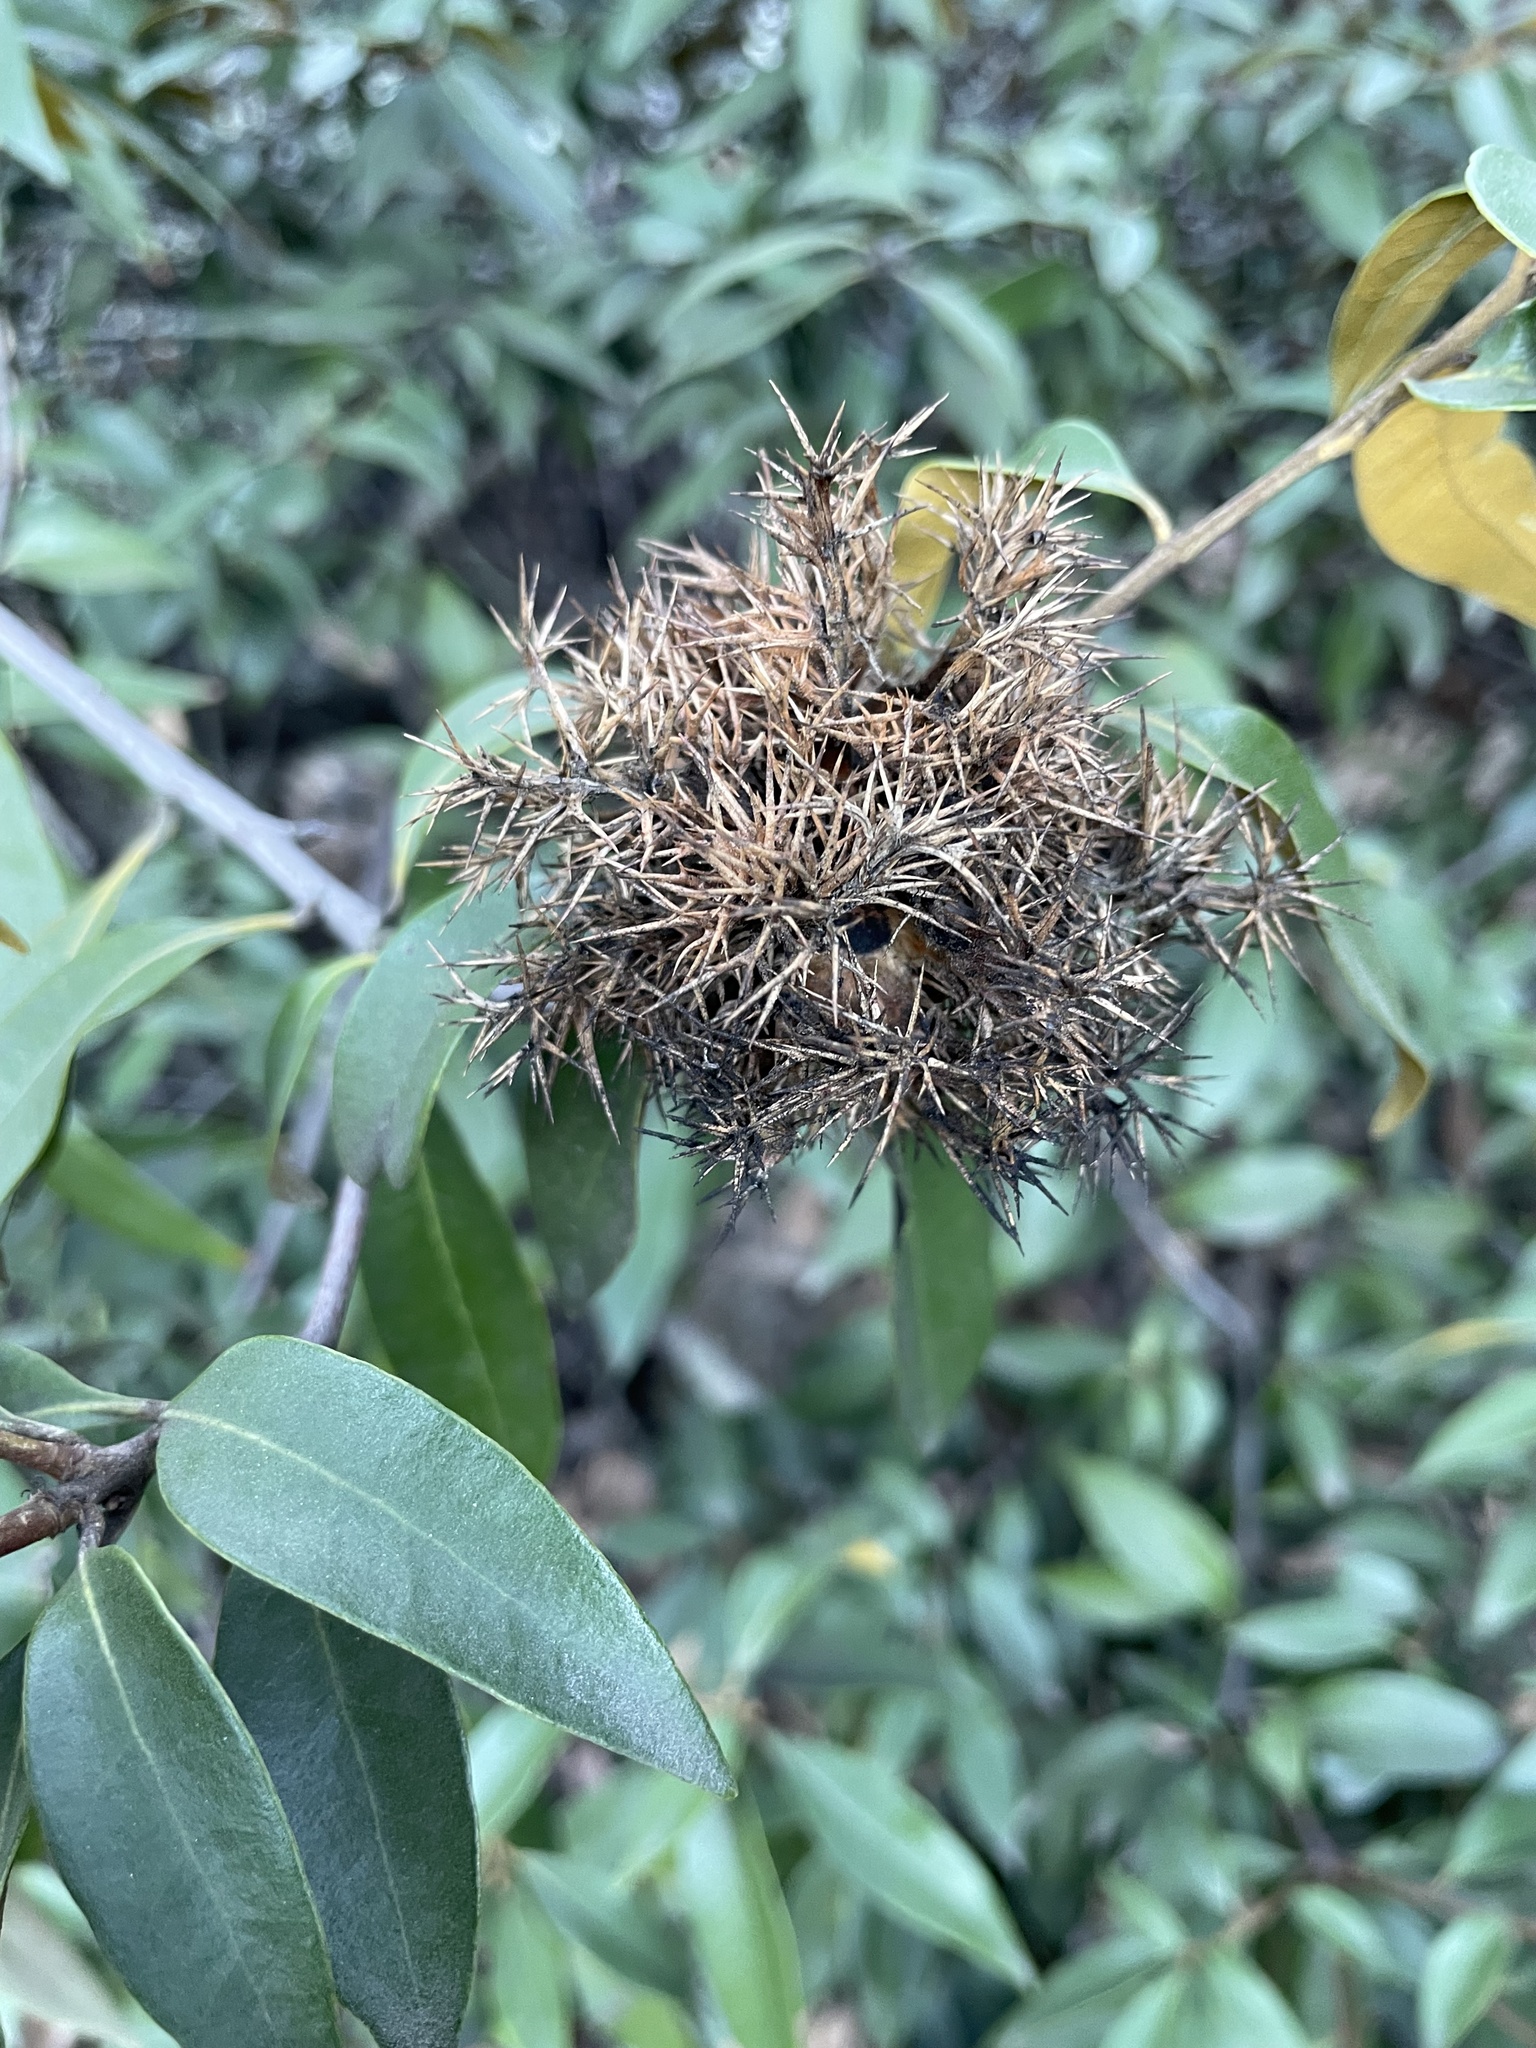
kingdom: Plantae
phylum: Tracheophyta
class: Magnoliopsida
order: Fagales
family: Fagaceae
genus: Chrysolepis
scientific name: Chrysolepis chrysophylla
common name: Giant chinquapin
